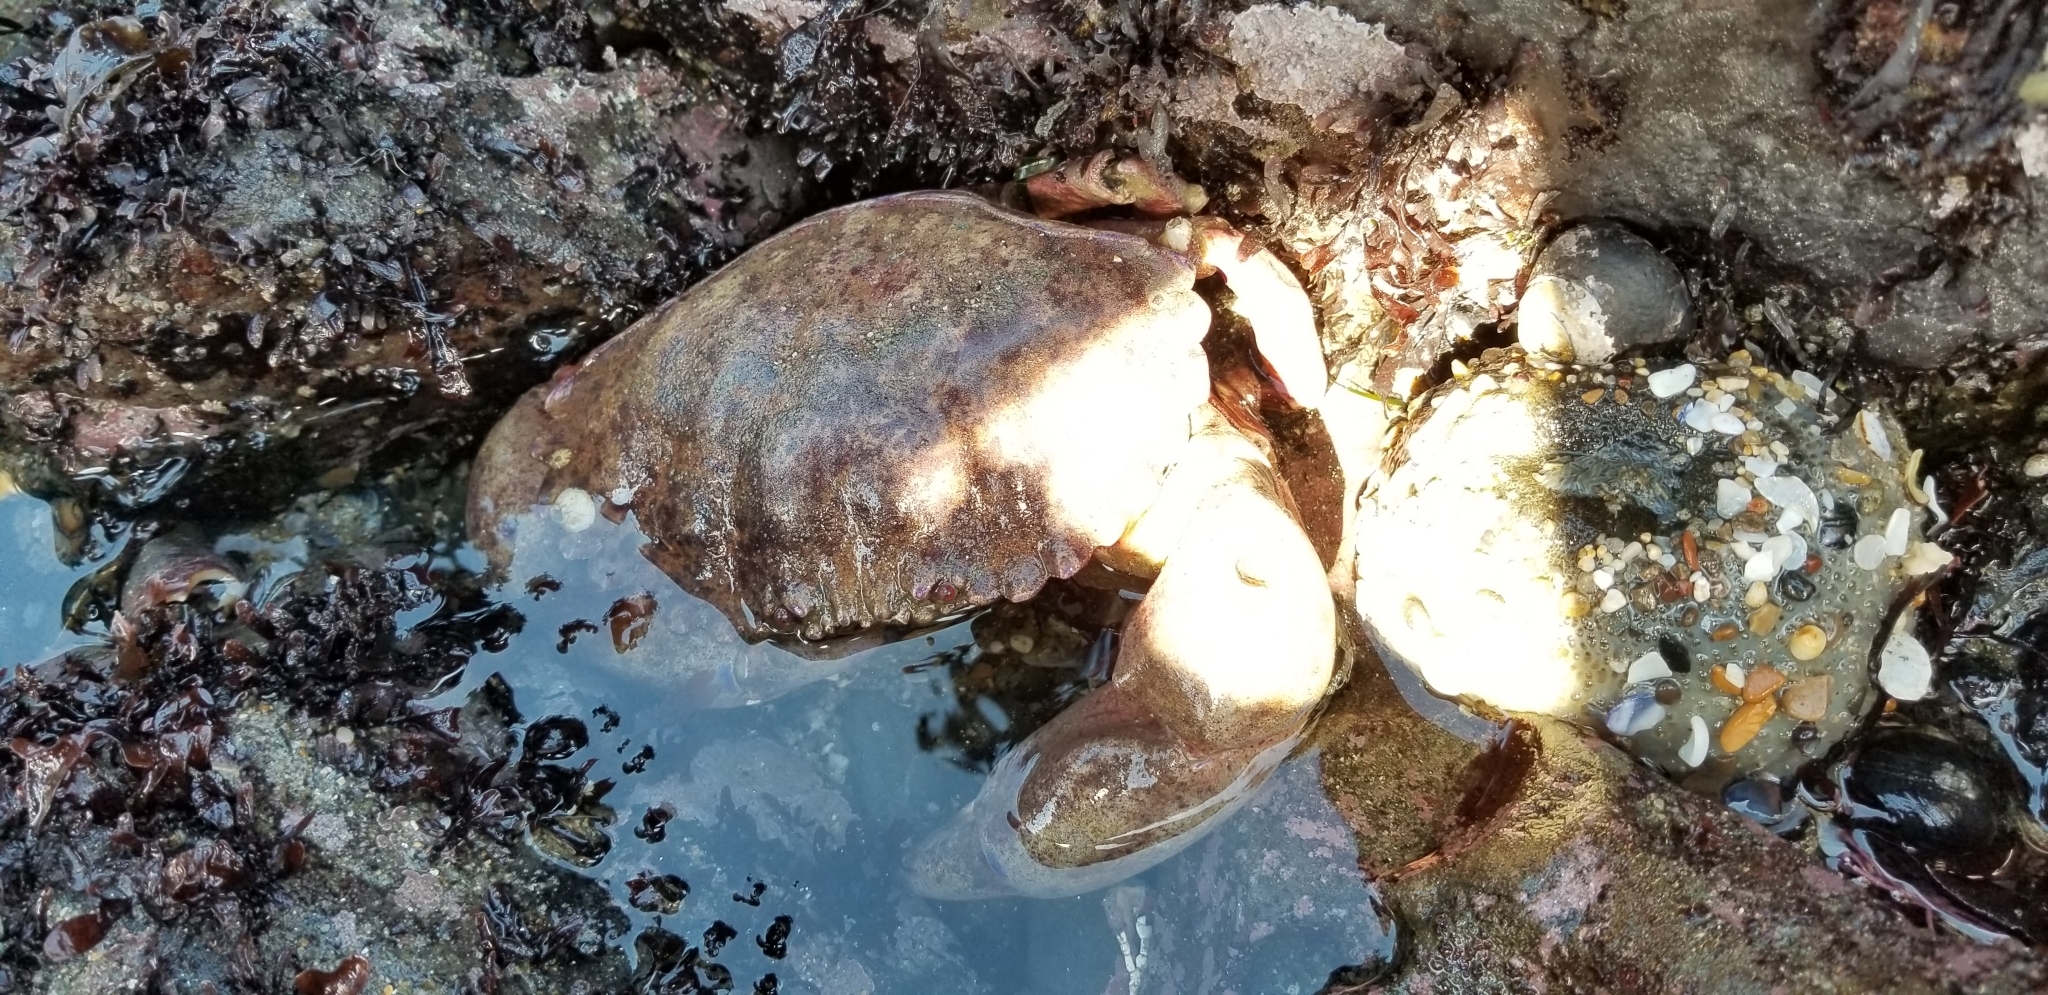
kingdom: Animalia
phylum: Arthropoda
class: Malacostraca
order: Decapoda
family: Cancridae
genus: Romaleon
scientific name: Romaleon antennarium
